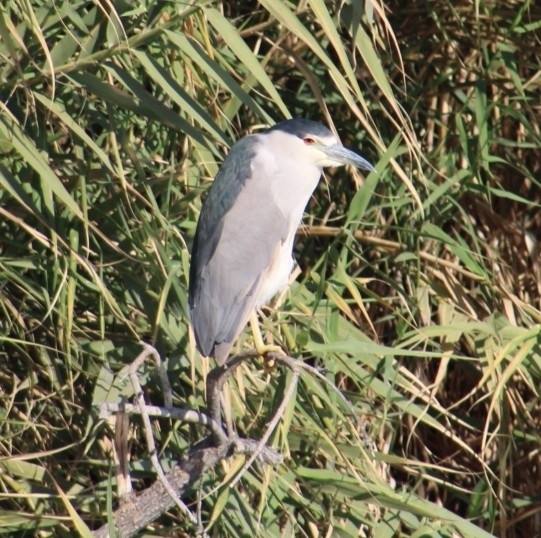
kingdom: Animalia
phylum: Chordata
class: Aves
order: Pelecaniformes
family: Ardeidae
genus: Nycticorax
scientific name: Nycticorax nycticorax
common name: Black-crowned night heron
